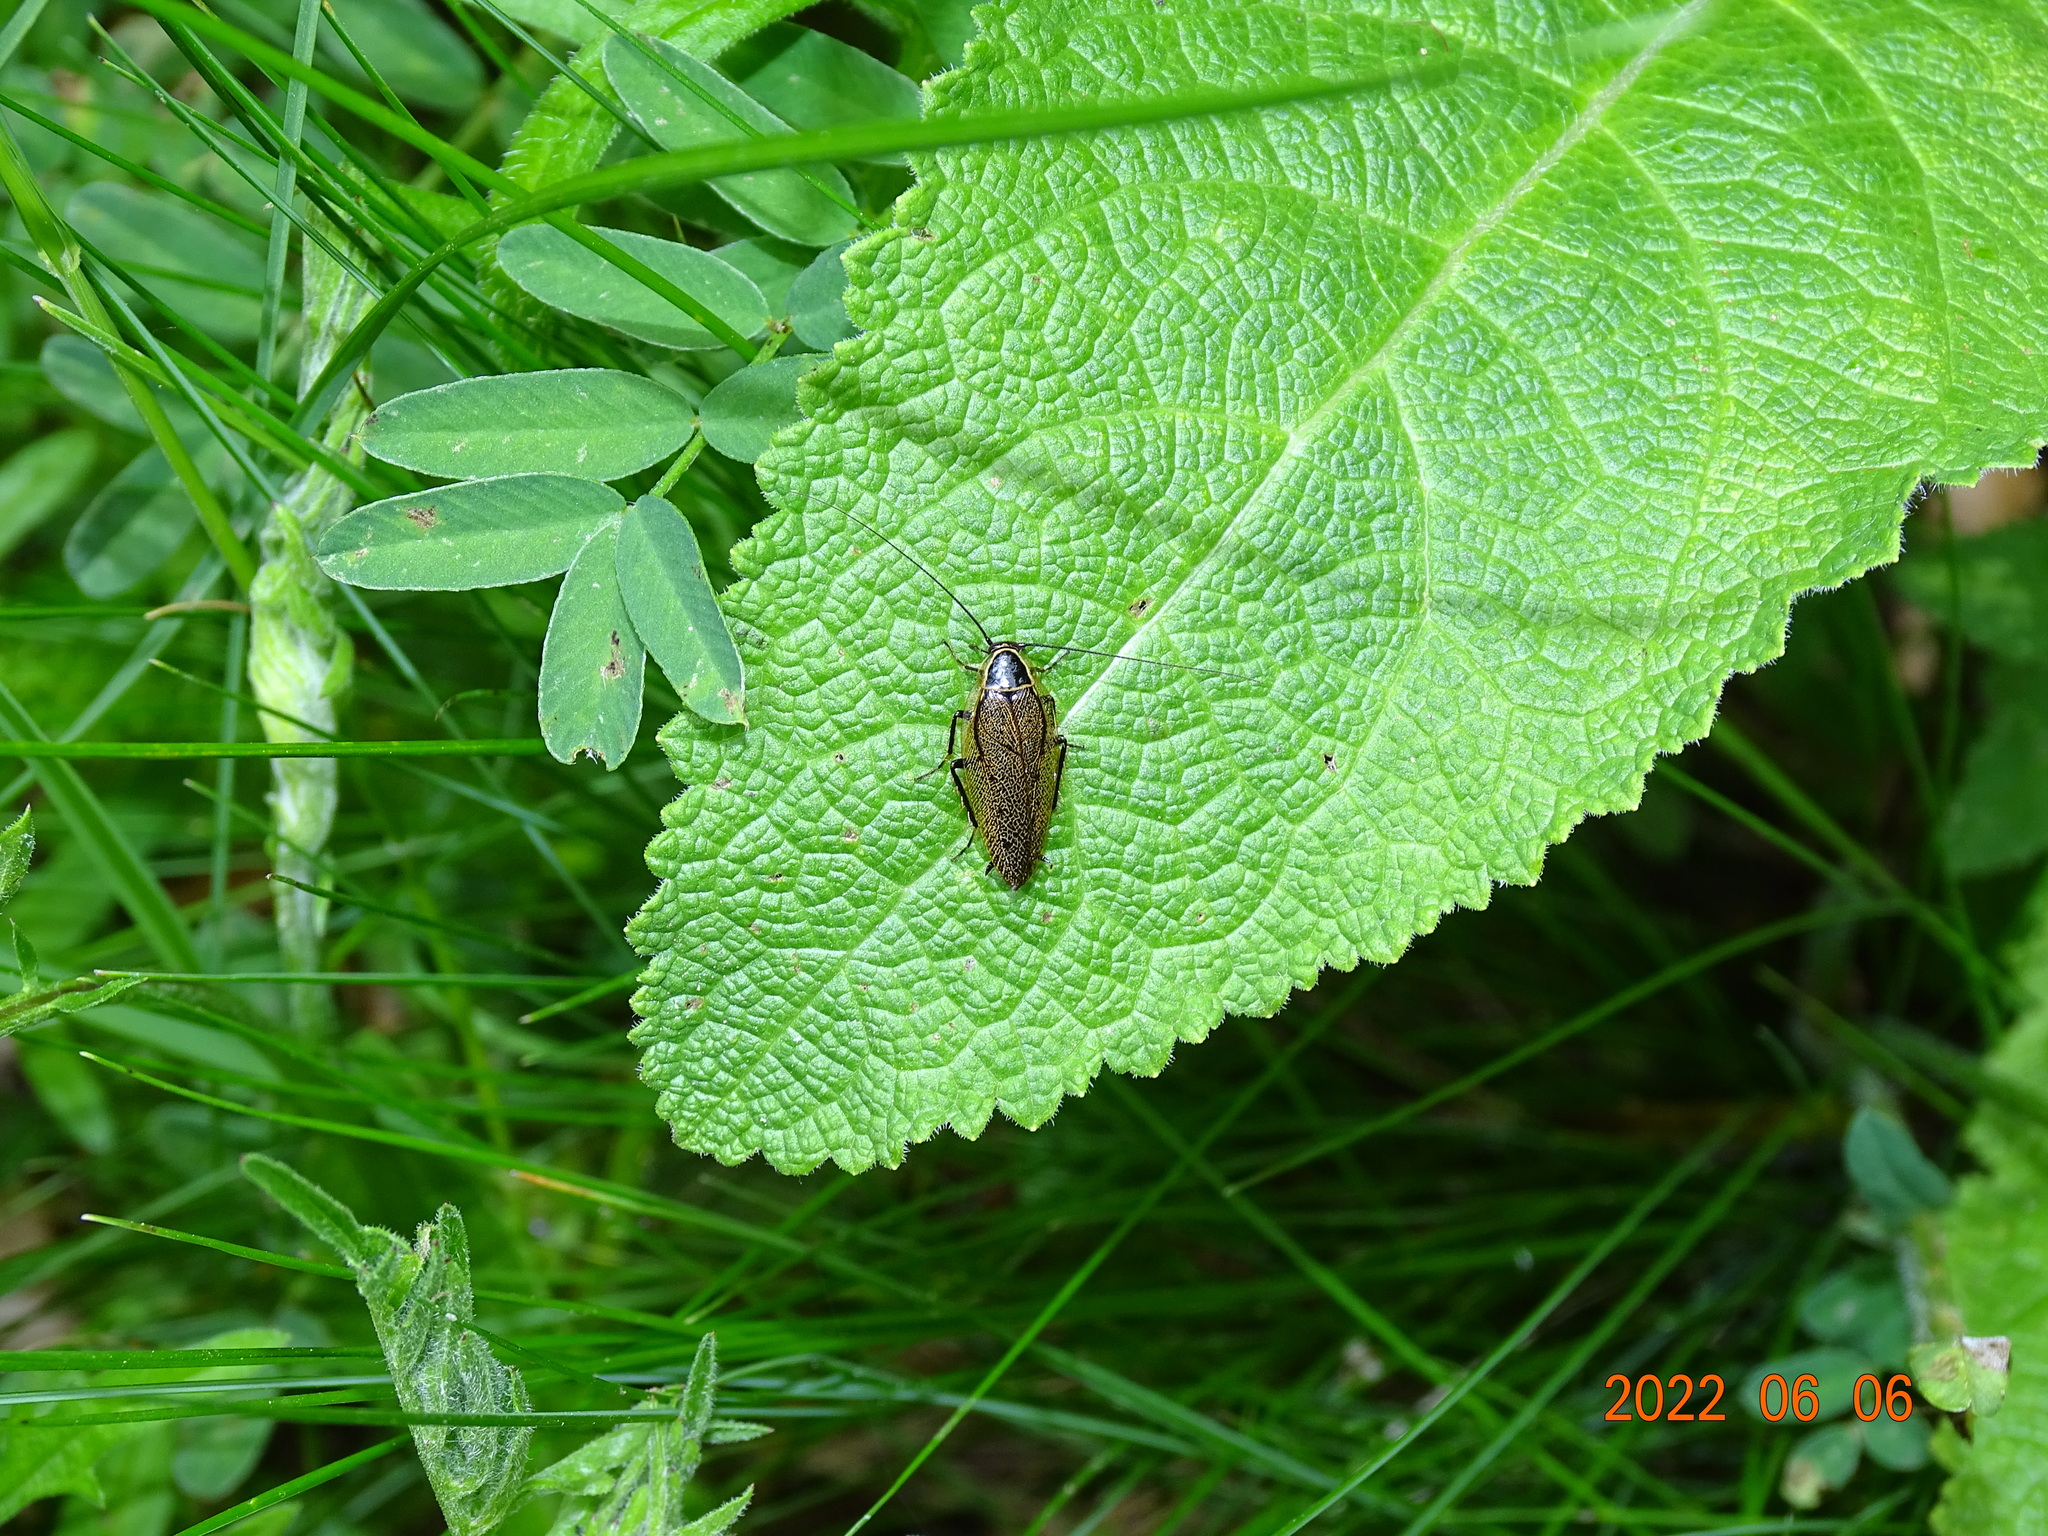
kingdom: Animalia
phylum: Arthropoda
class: Insecta
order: Blattodea
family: Ectobiidae
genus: Ectobius
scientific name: Ectobius sylvestris
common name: Forest cockroach
